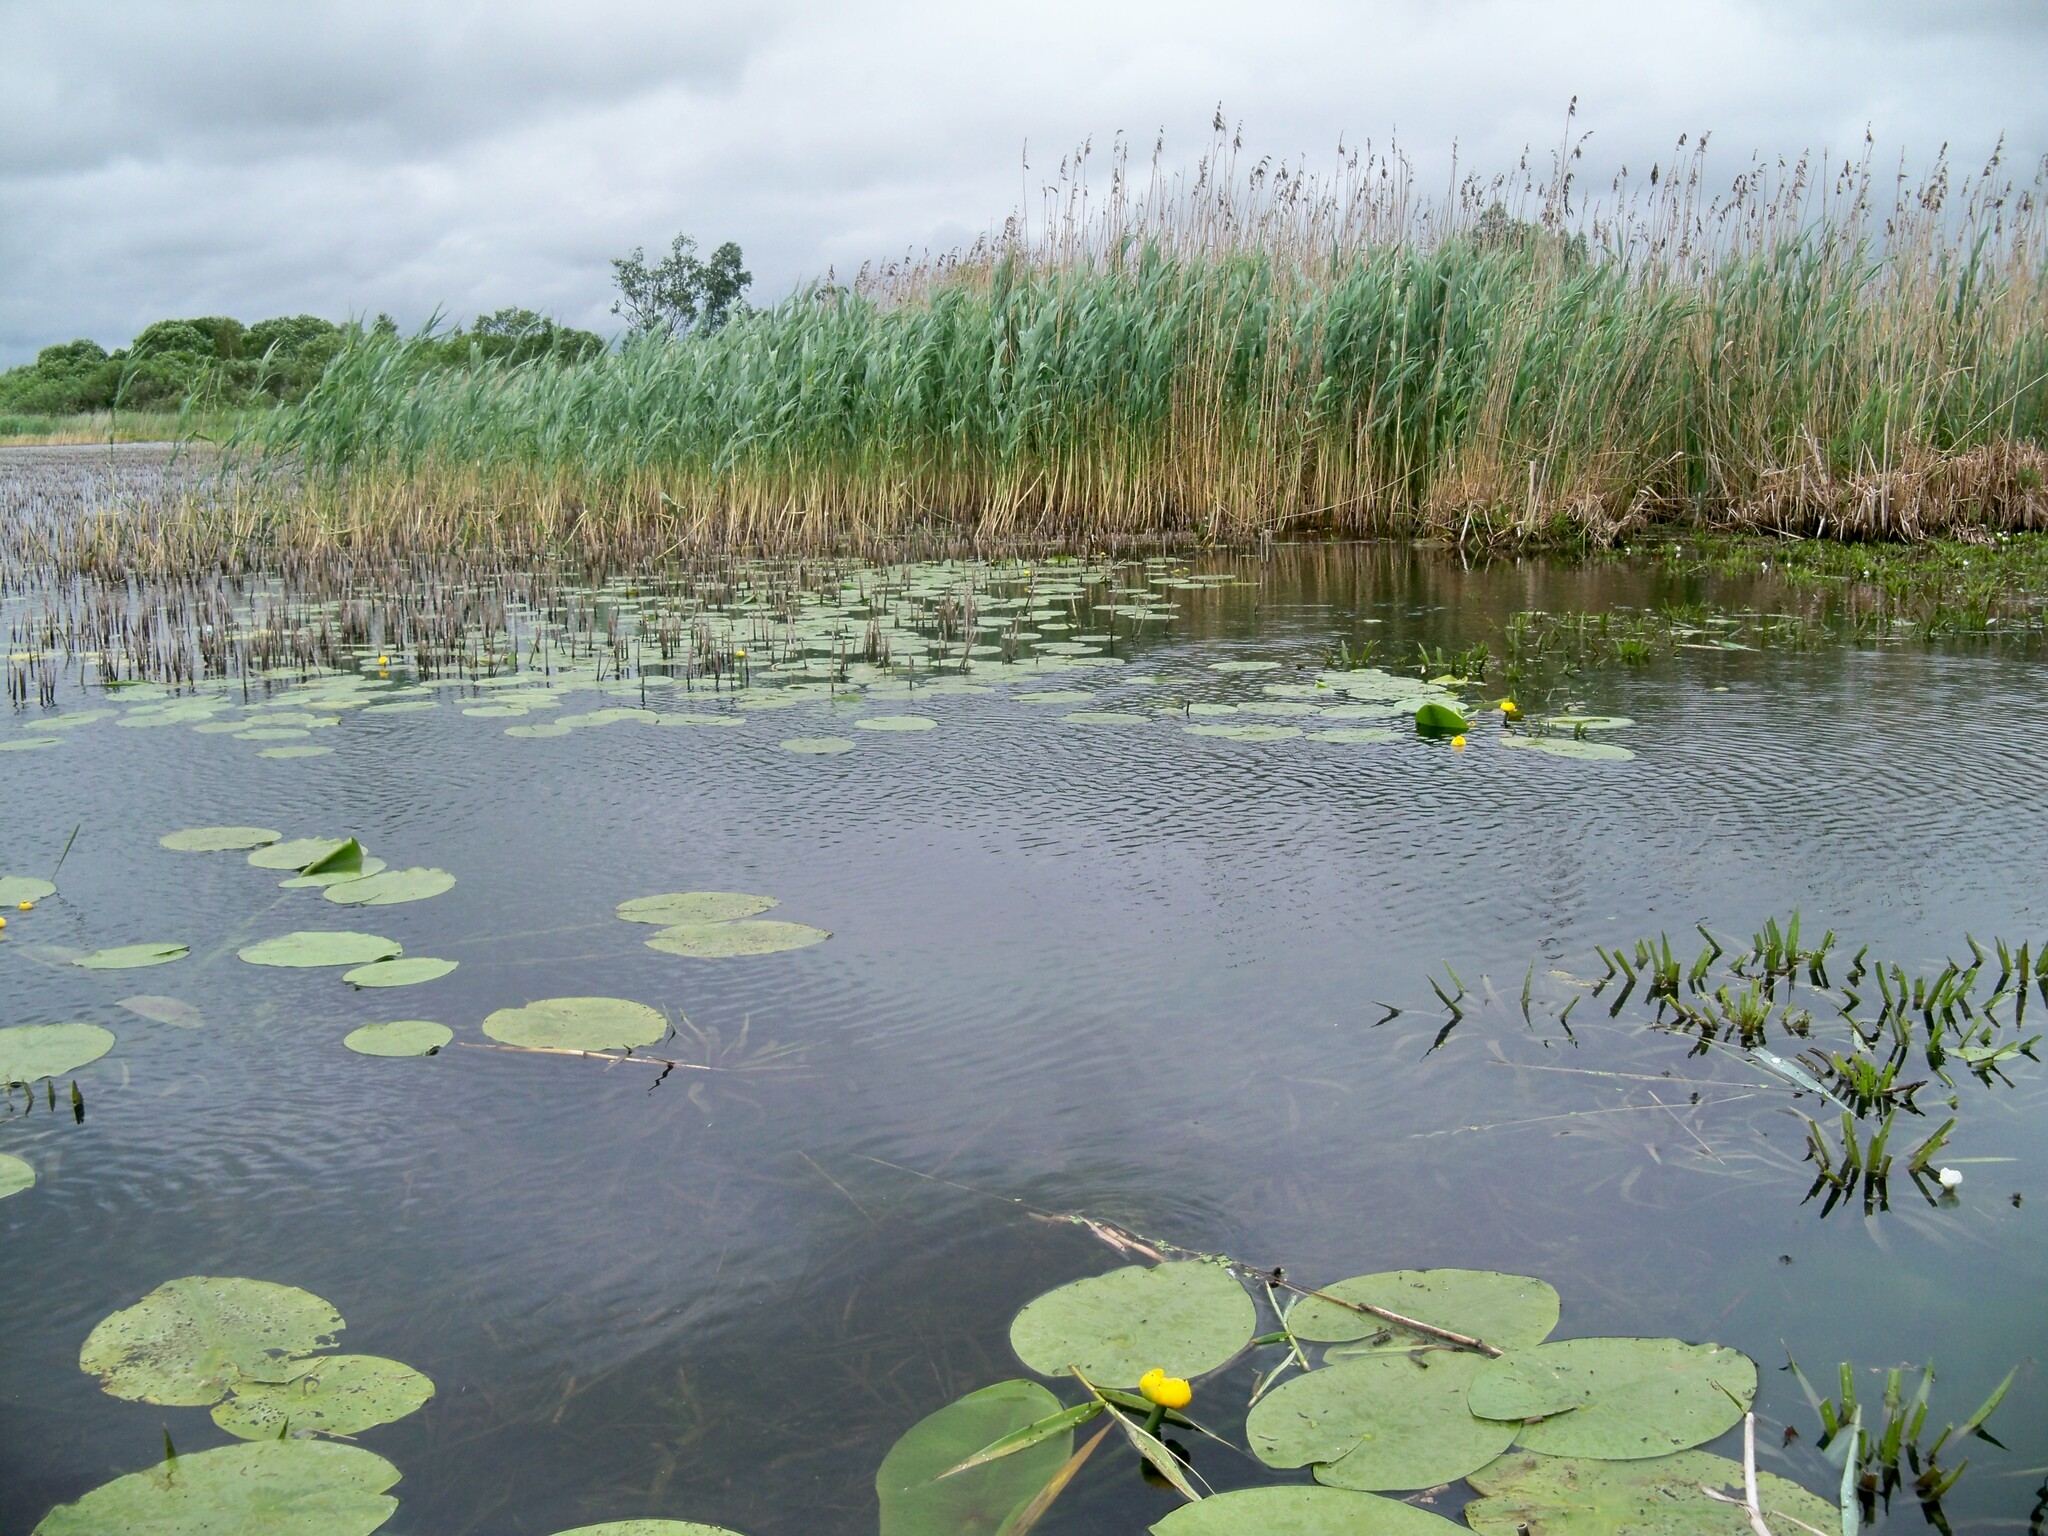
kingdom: Plantae
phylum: Tracheophyta
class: Liliopsida
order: Poales
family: Poaceae
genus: Phragmites
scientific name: Phragmites australis
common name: Common reed
